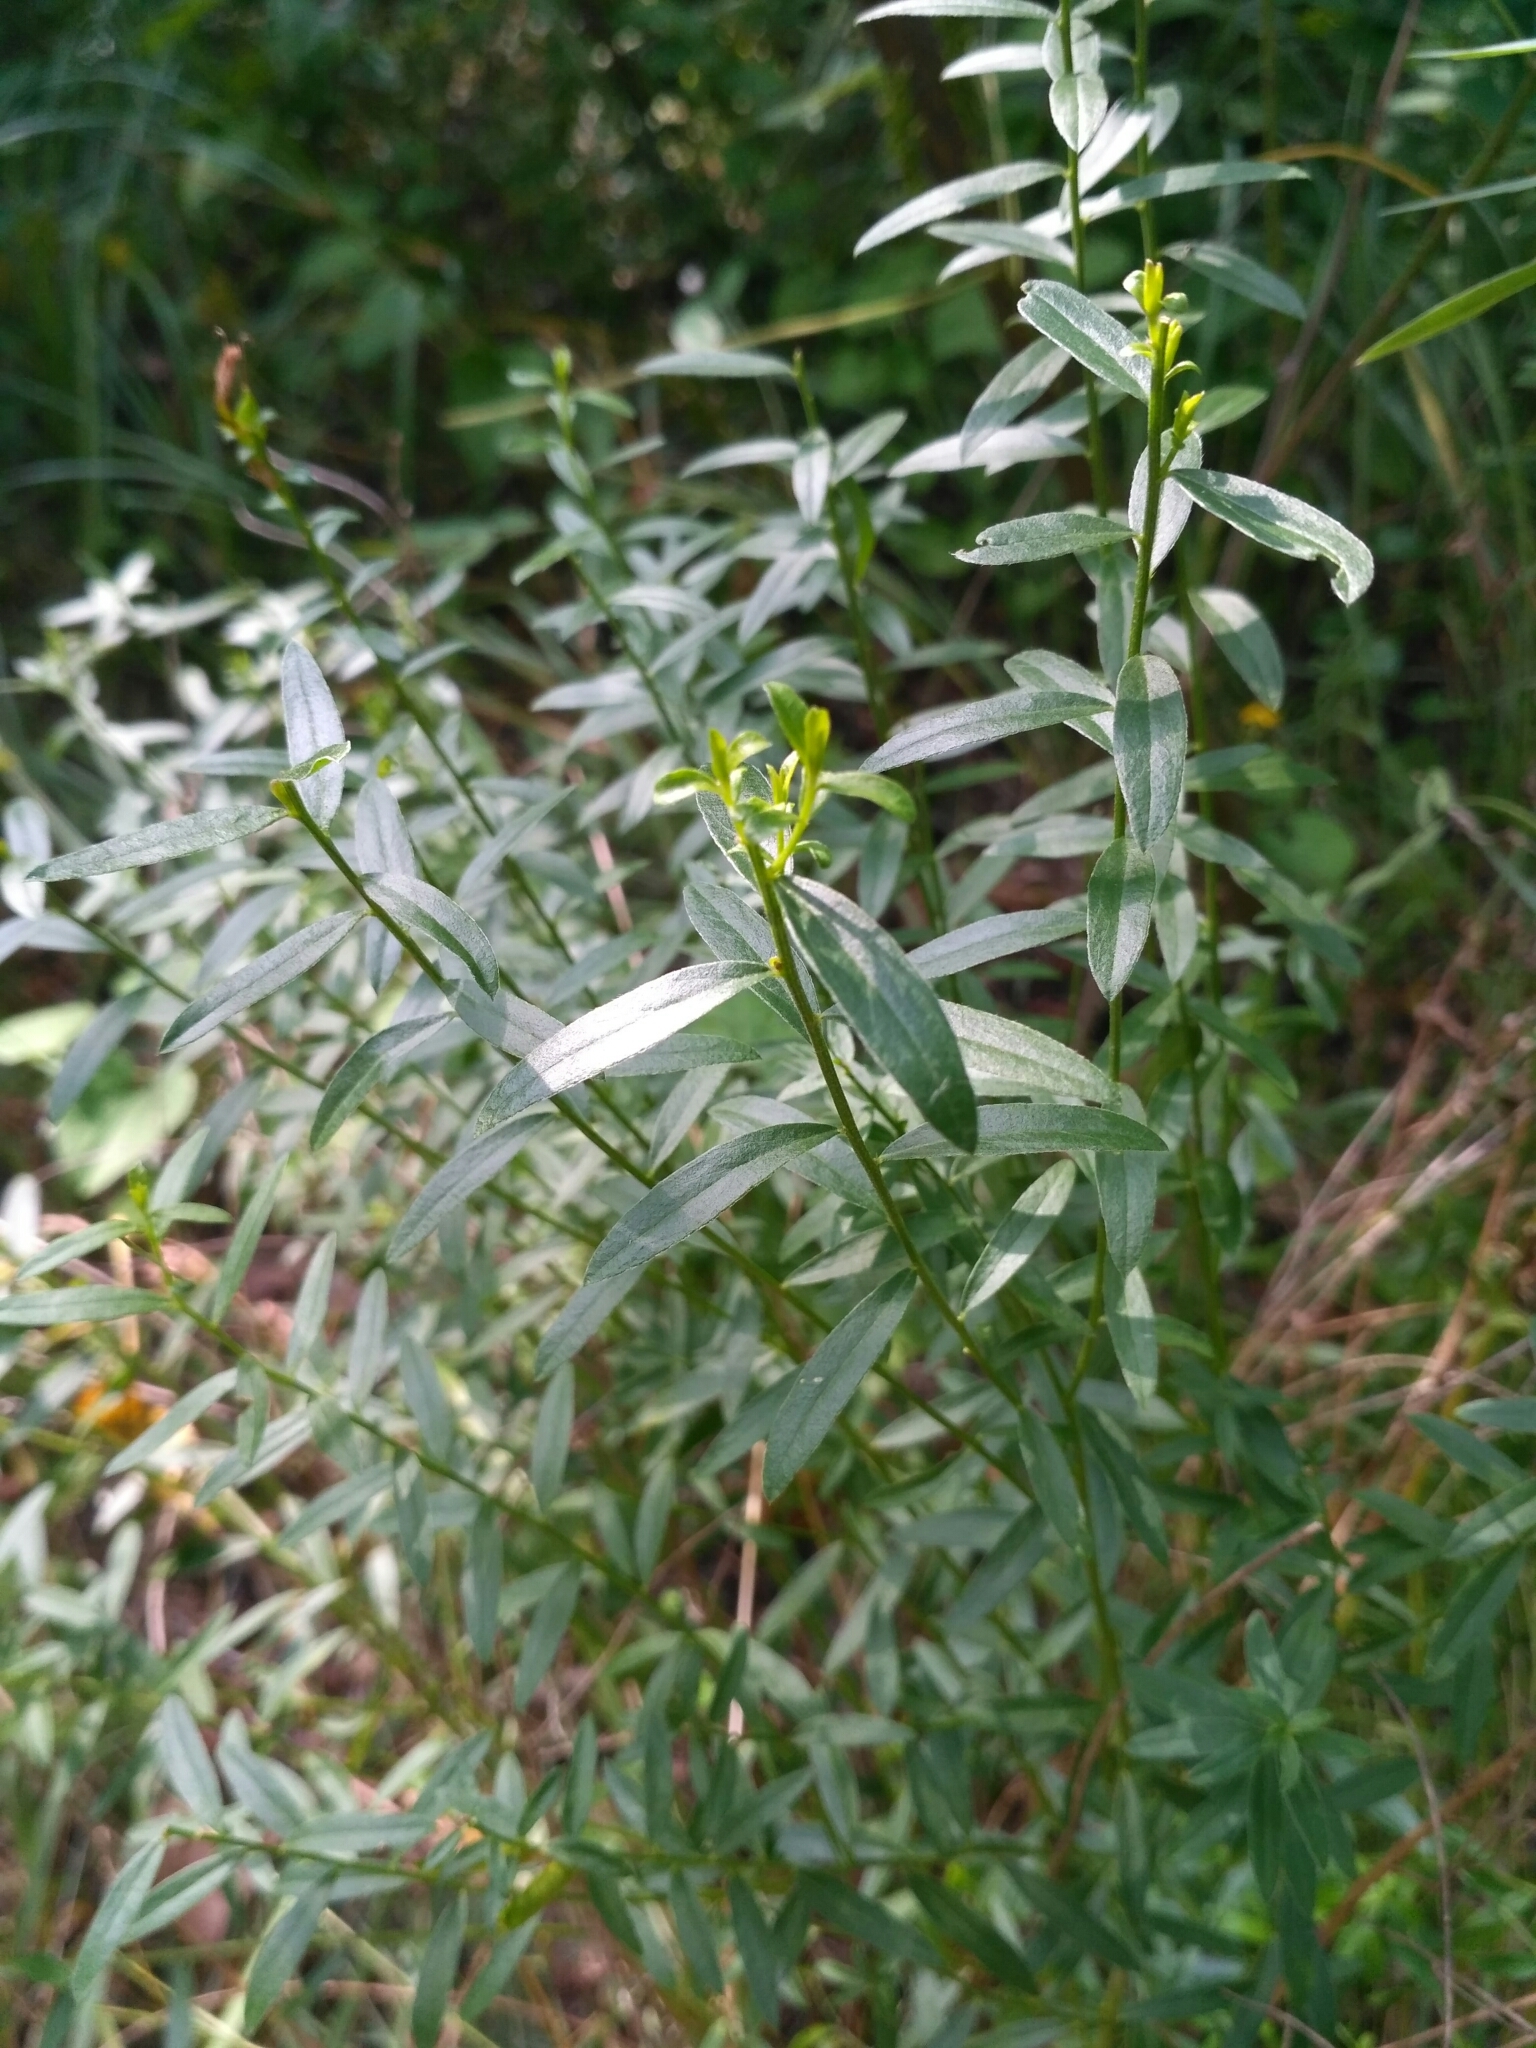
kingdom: Plantae
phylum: Tracheophyta
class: Magnoliopsida
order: Fabales
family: Fabaceae
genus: Genista
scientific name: Genista tinctoria
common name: Dyer's greenweed
